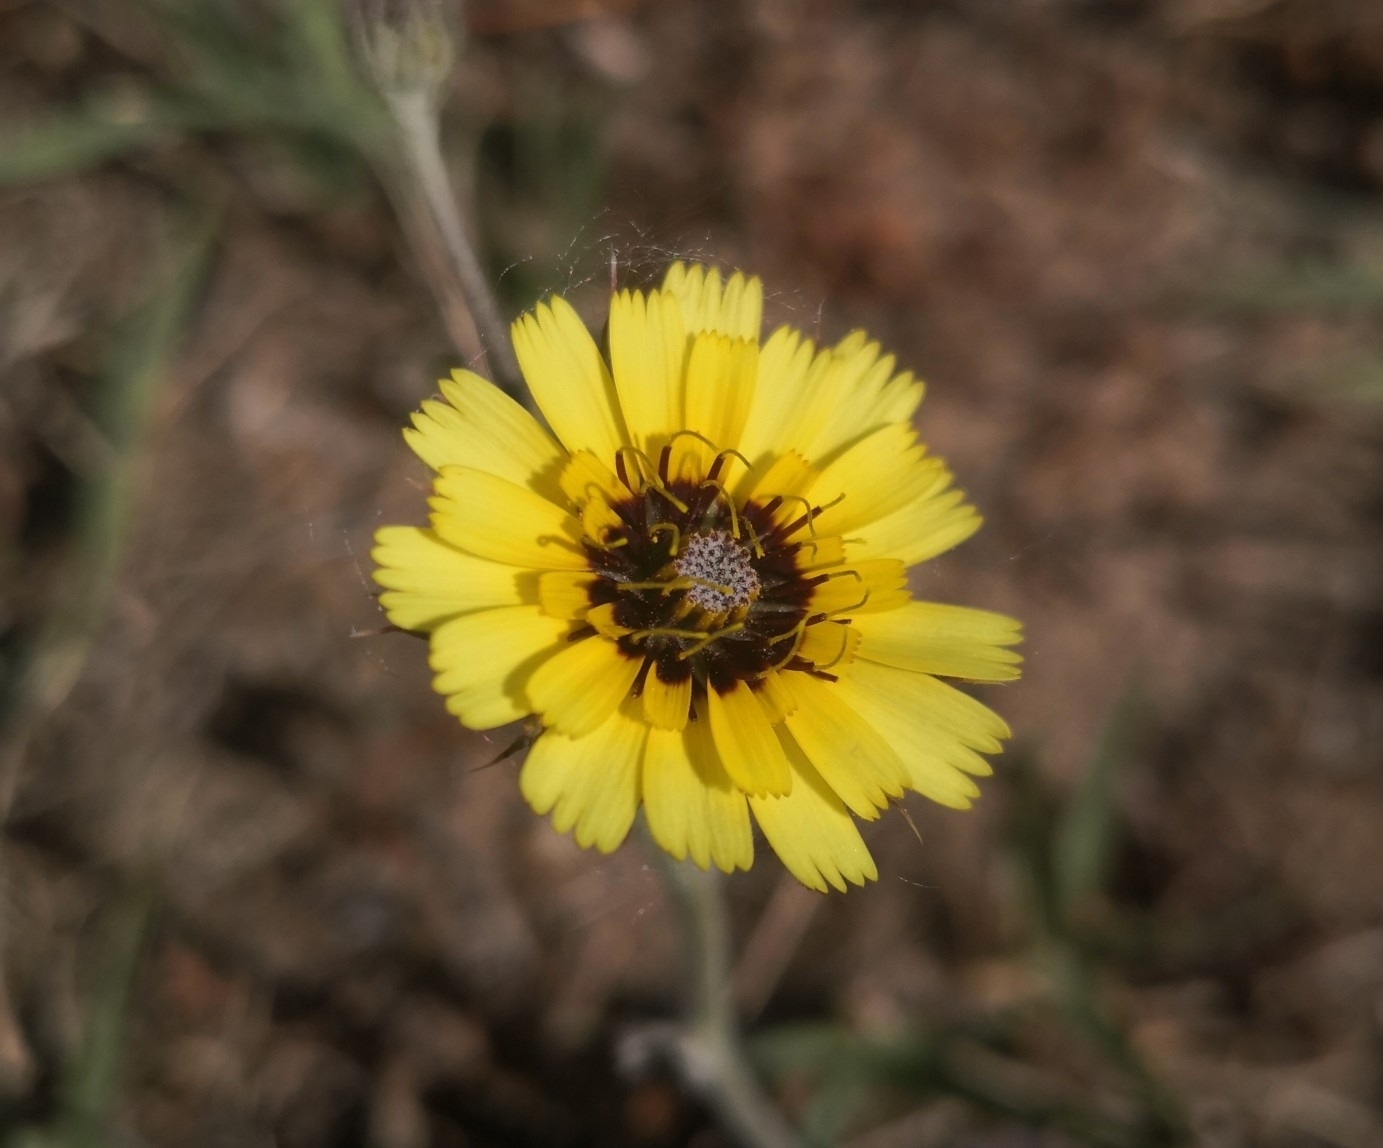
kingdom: Plantae
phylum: Tracheophyta
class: Magnoliopsida
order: Asterales
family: Asteraceae
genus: Tolpis
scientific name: Tolpis barbata
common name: Yellow hawkweed
